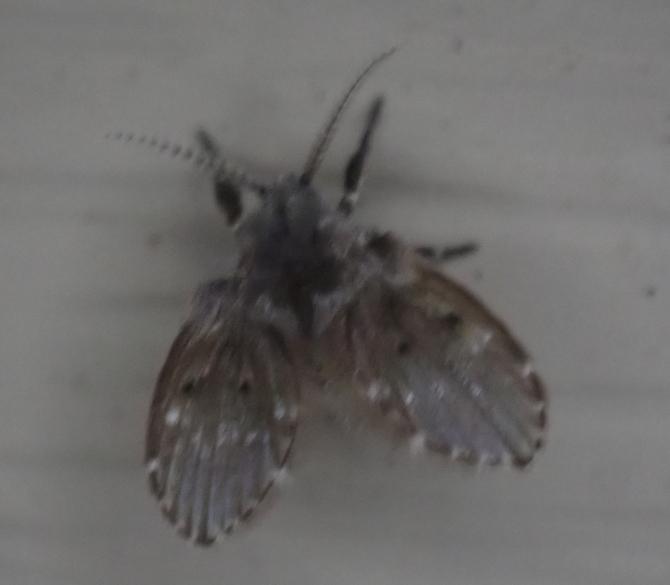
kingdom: Animalia
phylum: Arthropoda
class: Insecta
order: Diptera
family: Psychodidae
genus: Clogmia
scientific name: Clogmia albipunctatus
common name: White-spotted moth fly
